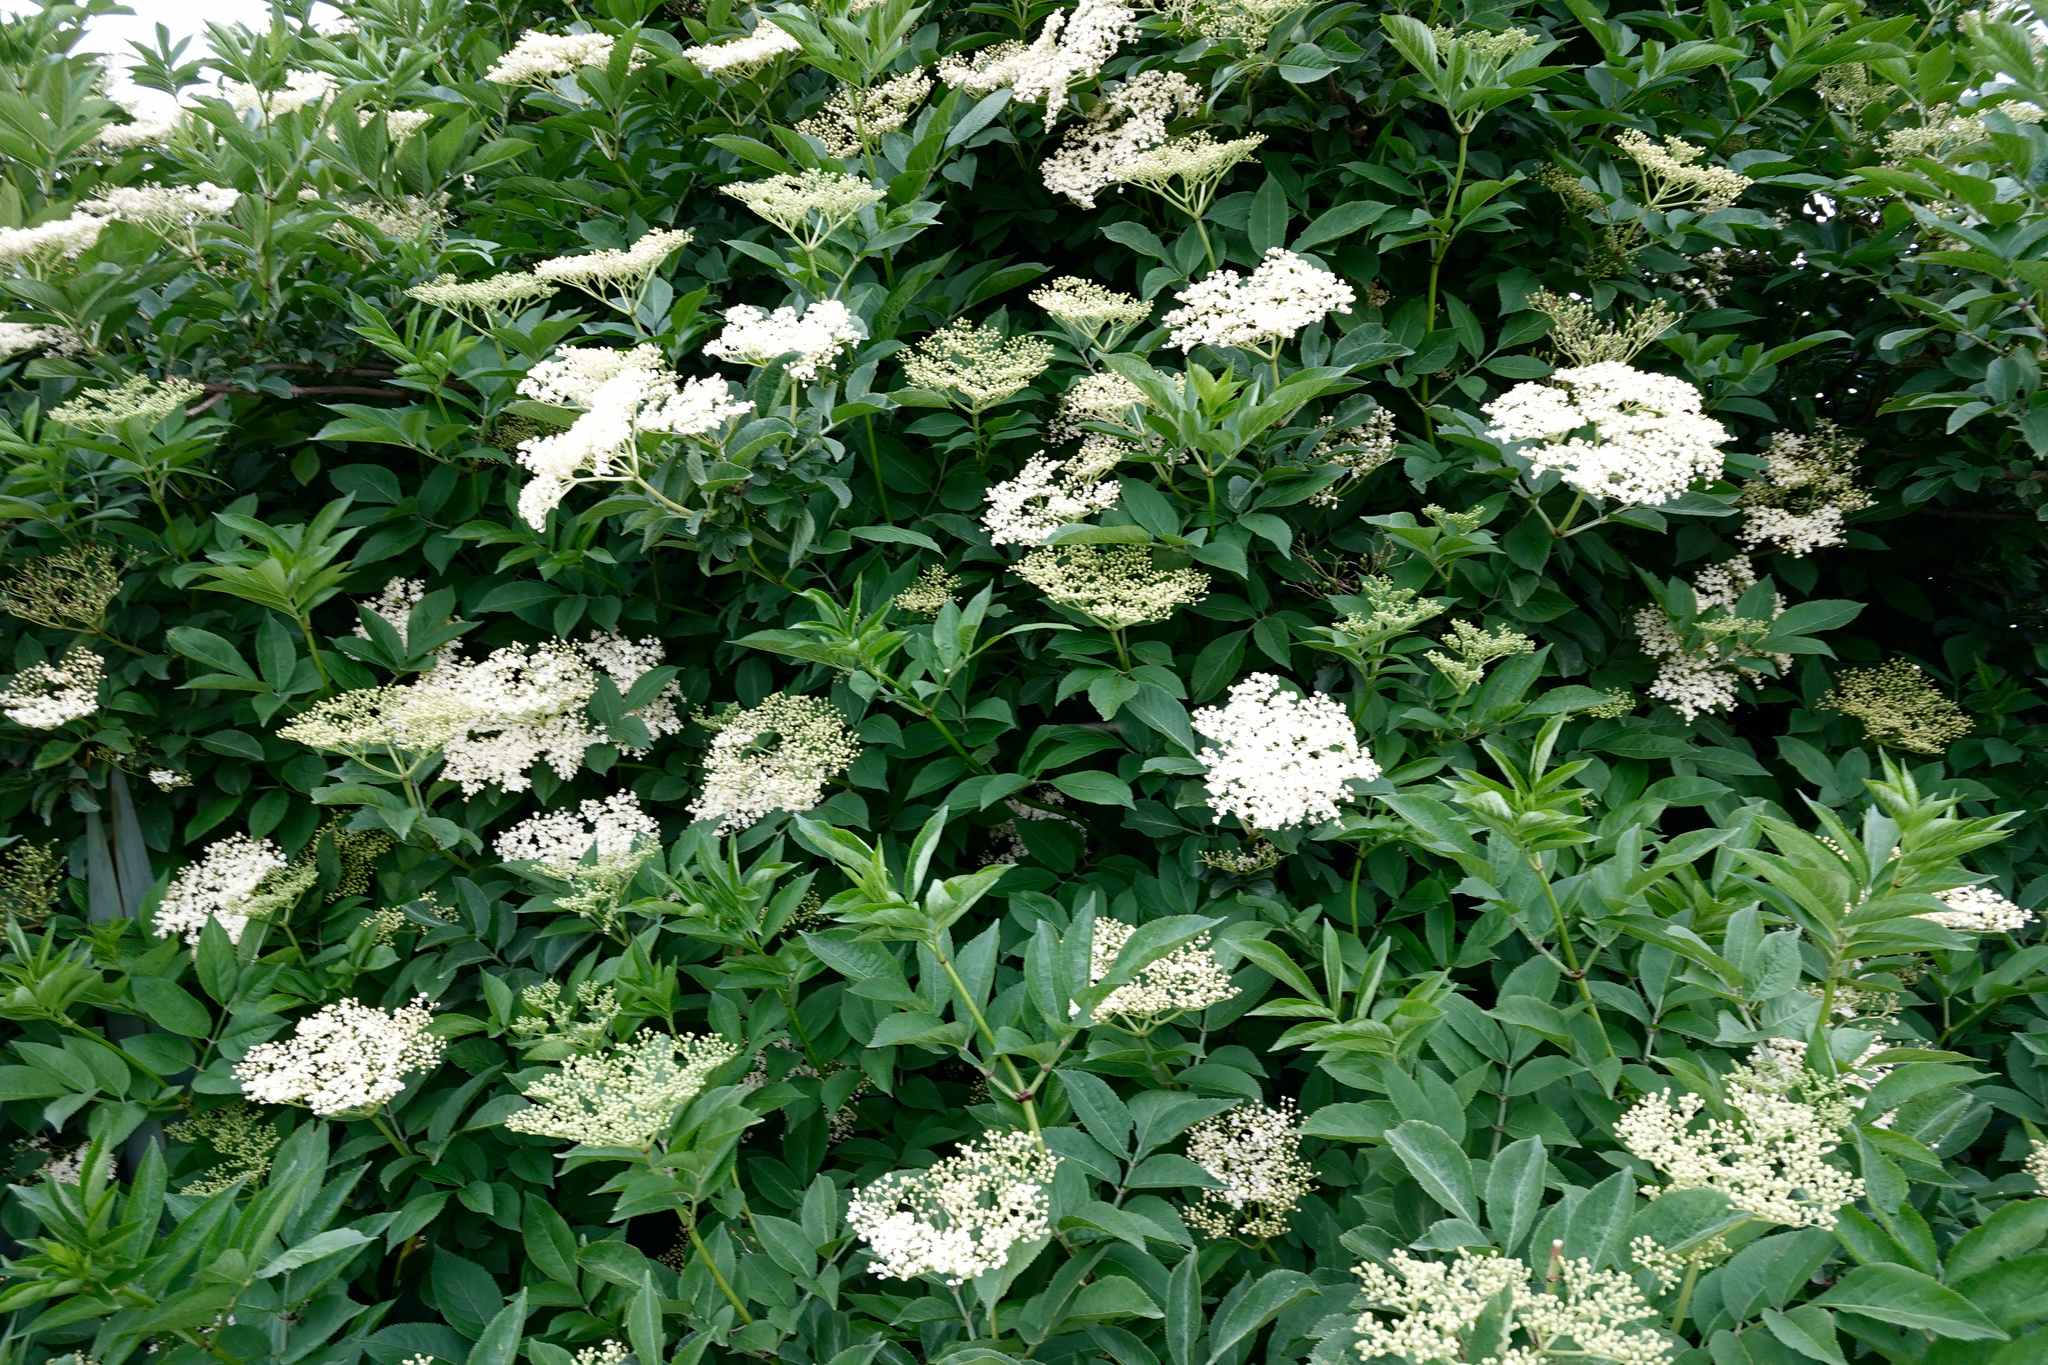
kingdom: Plantae
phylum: Tracheophyta
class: Magnoliopsida
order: Dipsacales
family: Viburnaceae
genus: Sambucus
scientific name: Sambucus nigra
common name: Elder
